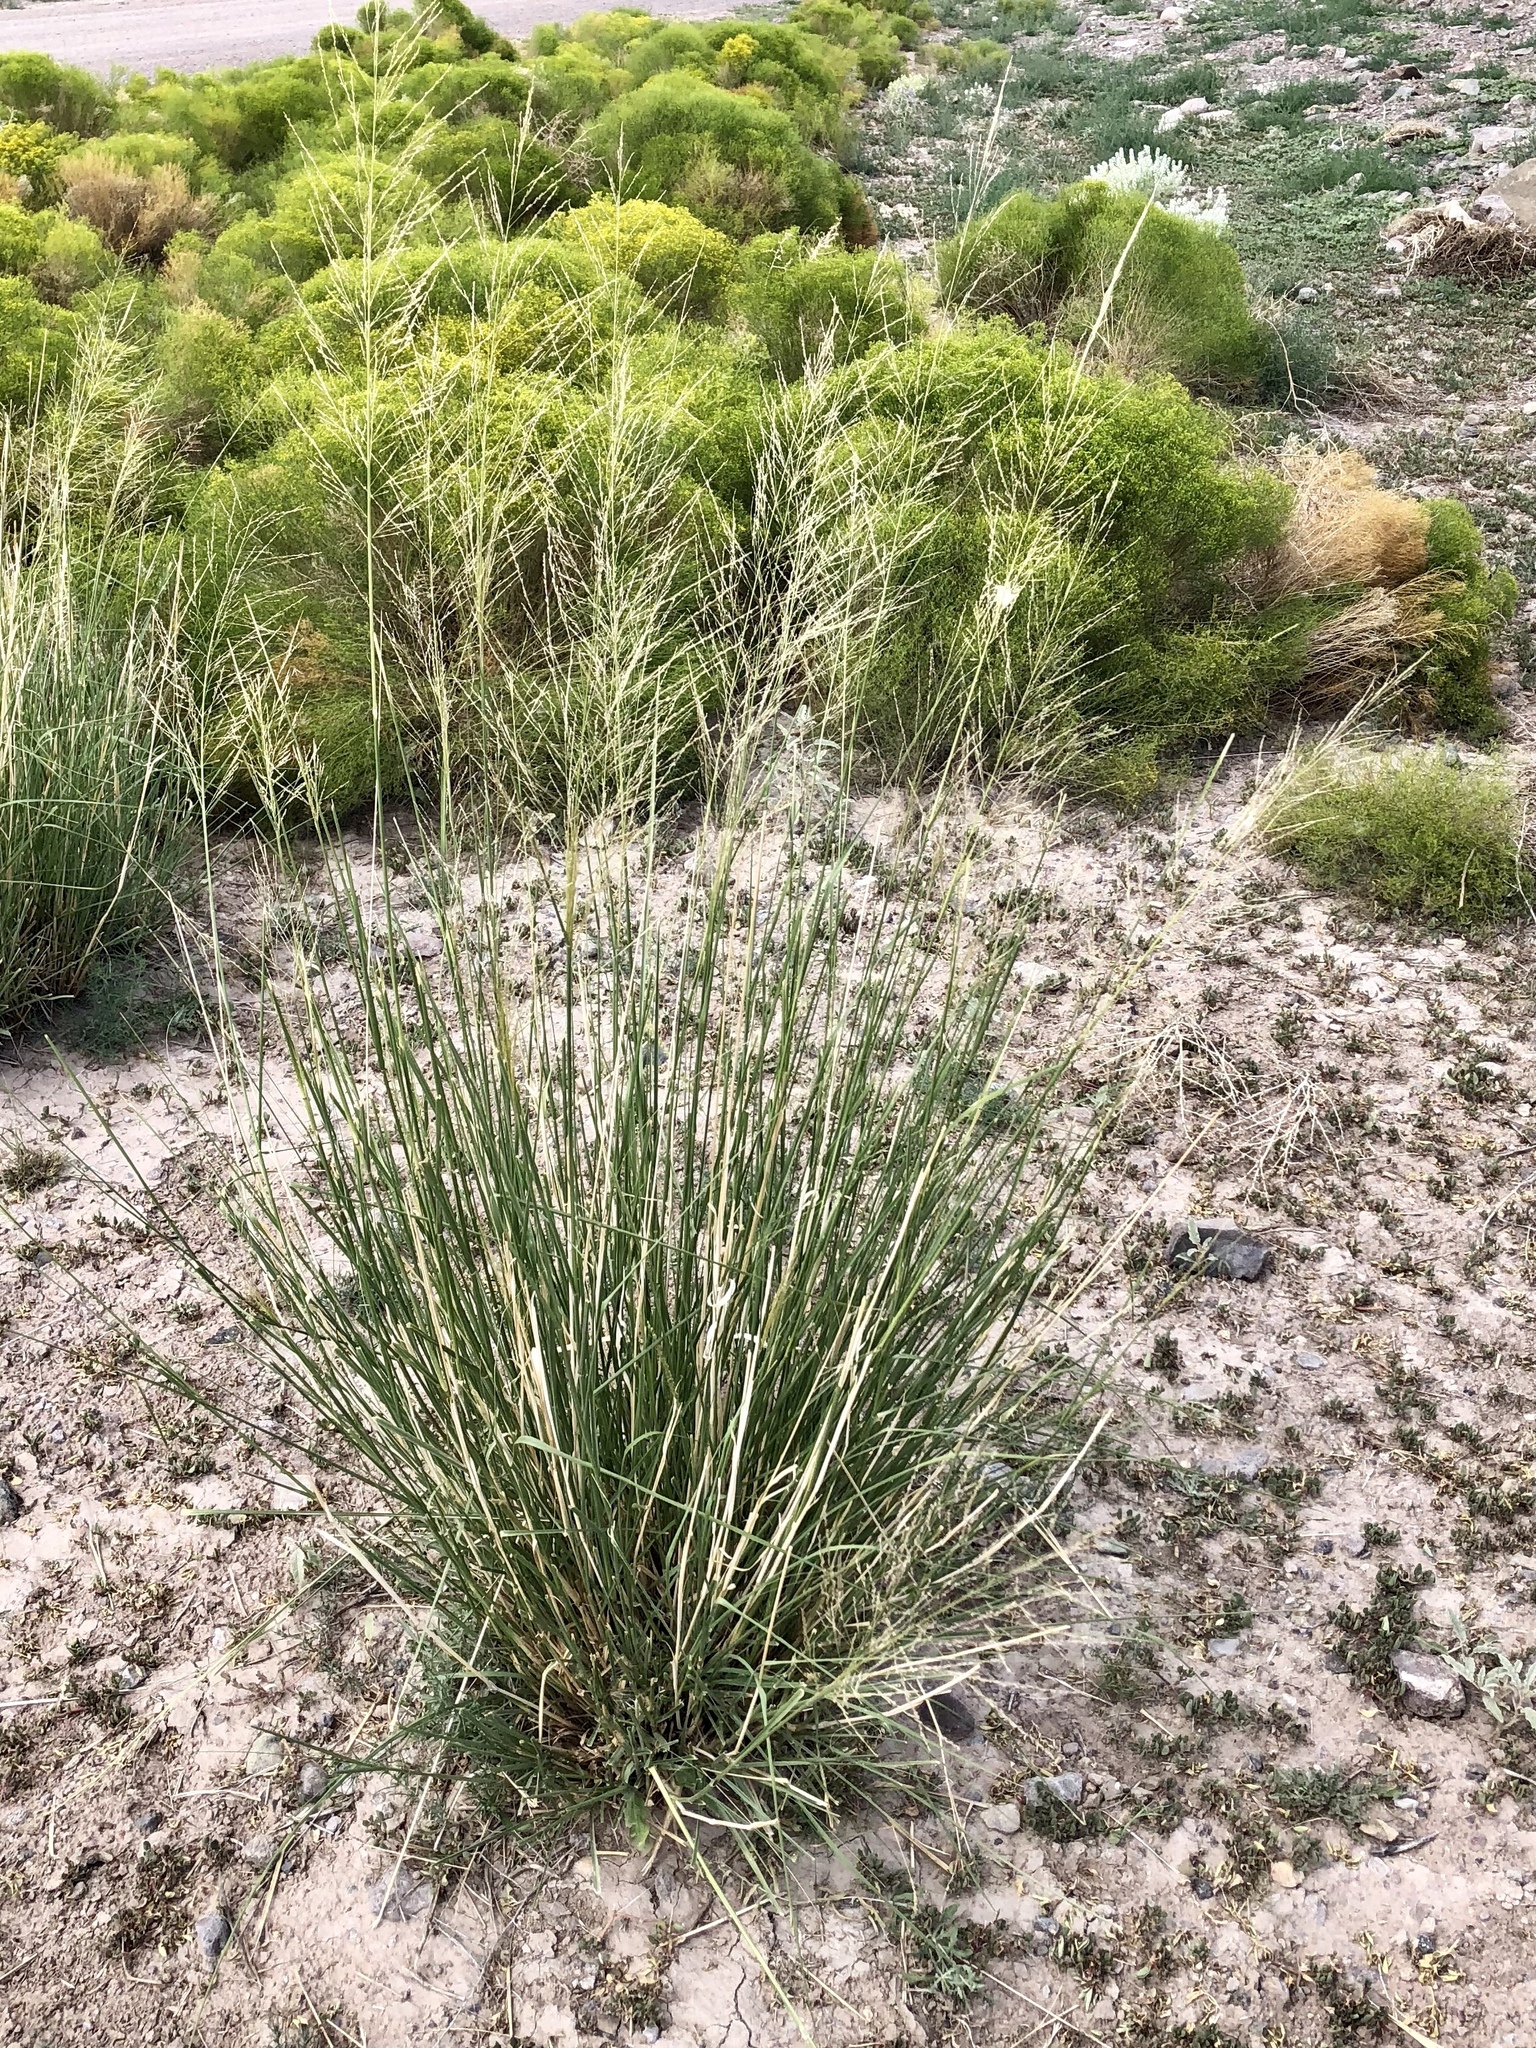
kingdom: Plantae
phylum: Tracheophyta
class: Liliopsida
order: Poales
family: Poaceae
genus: Sporobolus
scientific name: Sporobolus wrightii
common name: Big alkali sacaton
